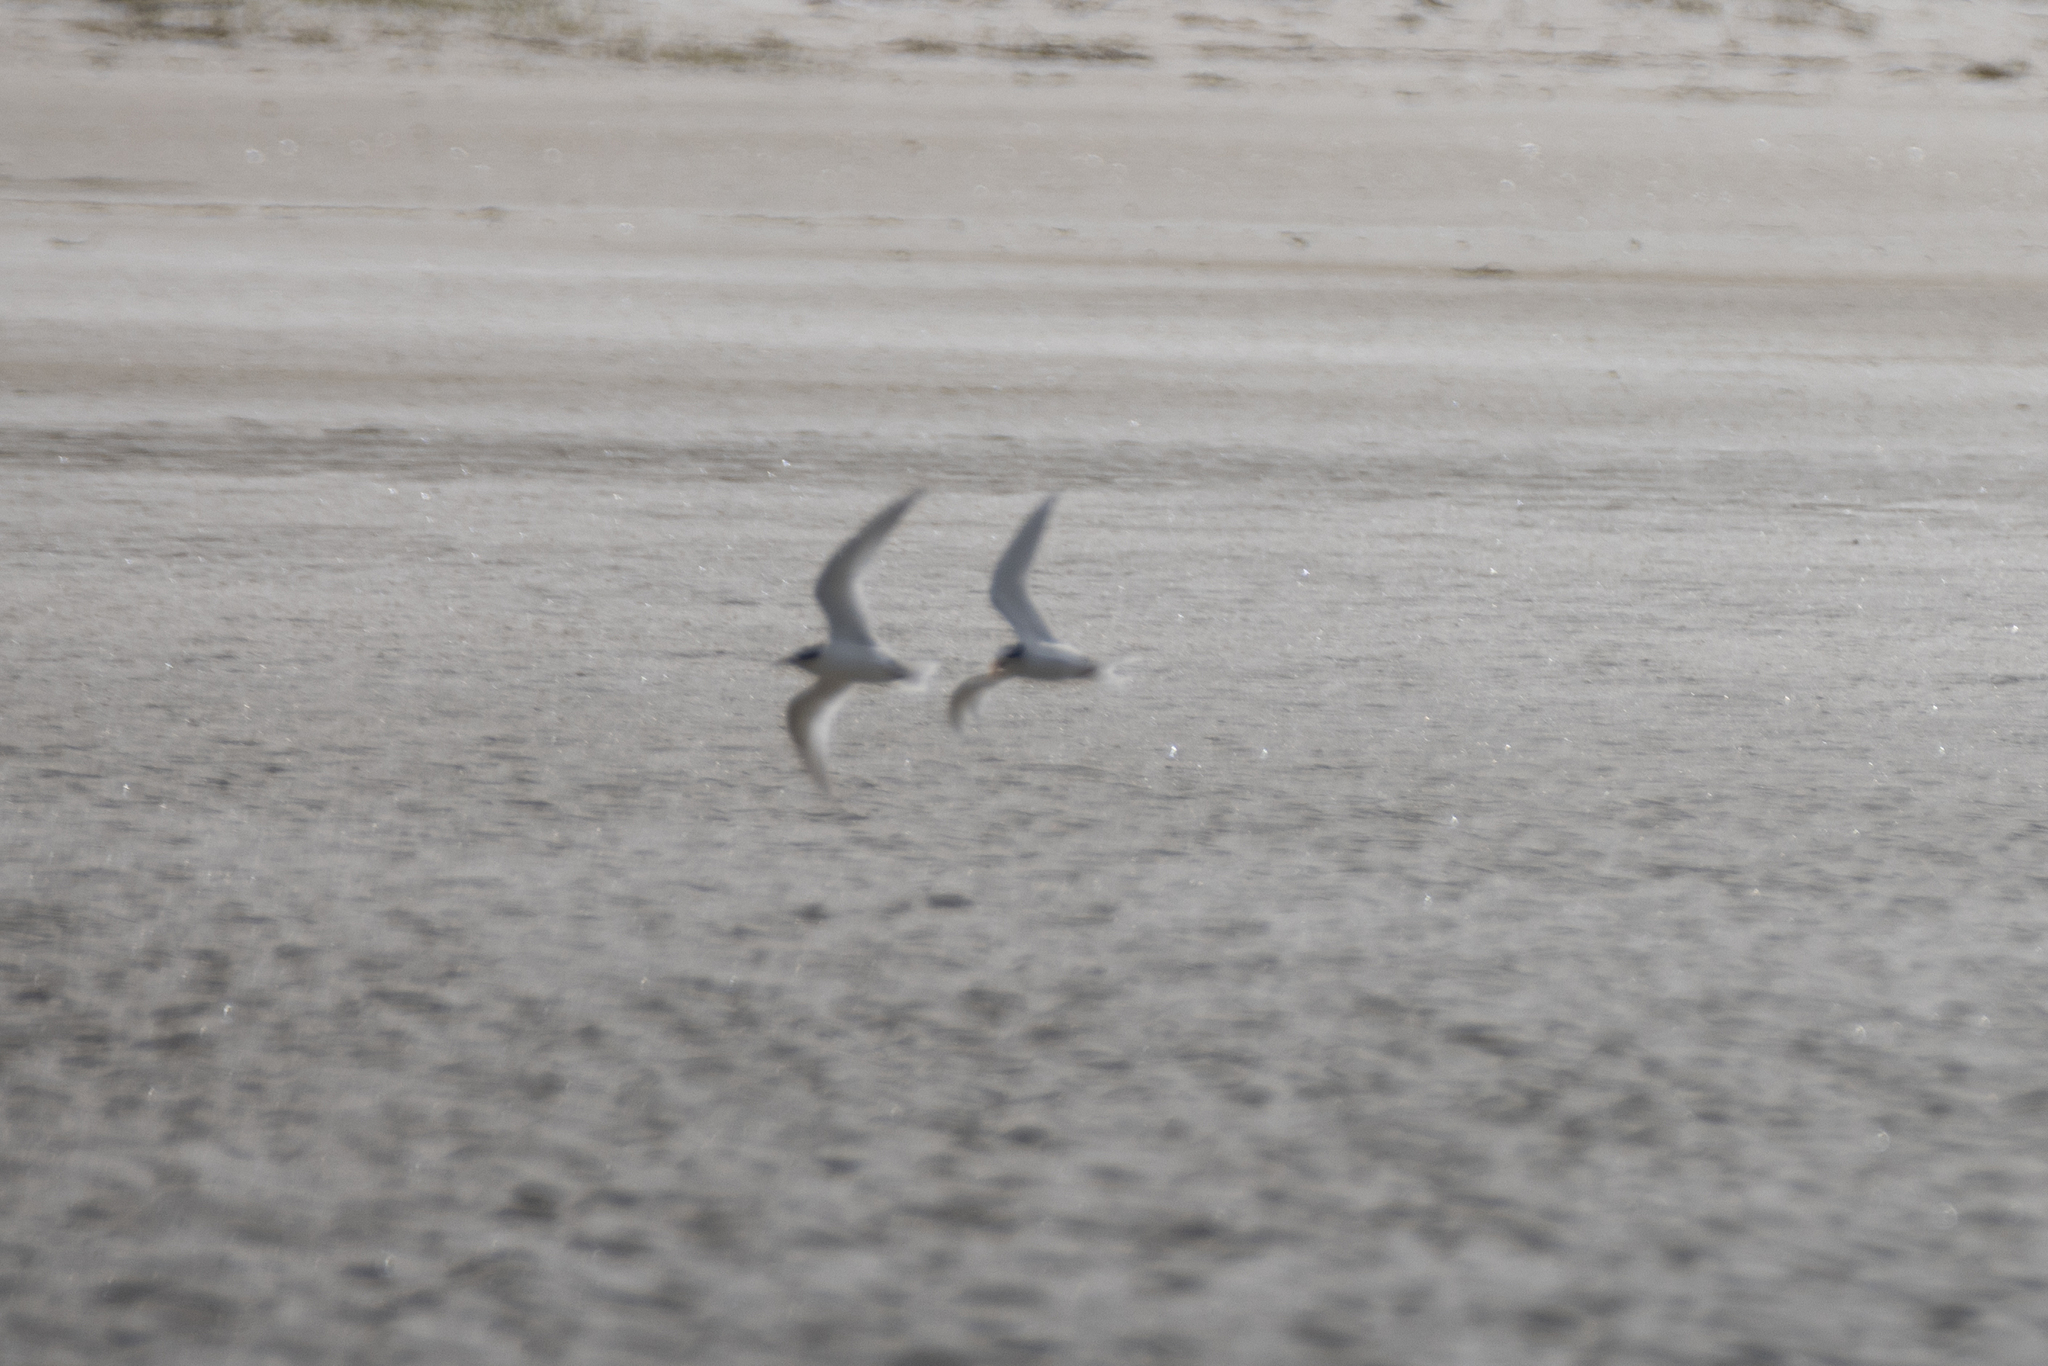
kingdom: Animalia
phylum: Chordata
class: Aves
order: Charadriiformes
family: Laridae
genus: Sternula
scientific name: Sternula nereis
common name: Fairy tern
